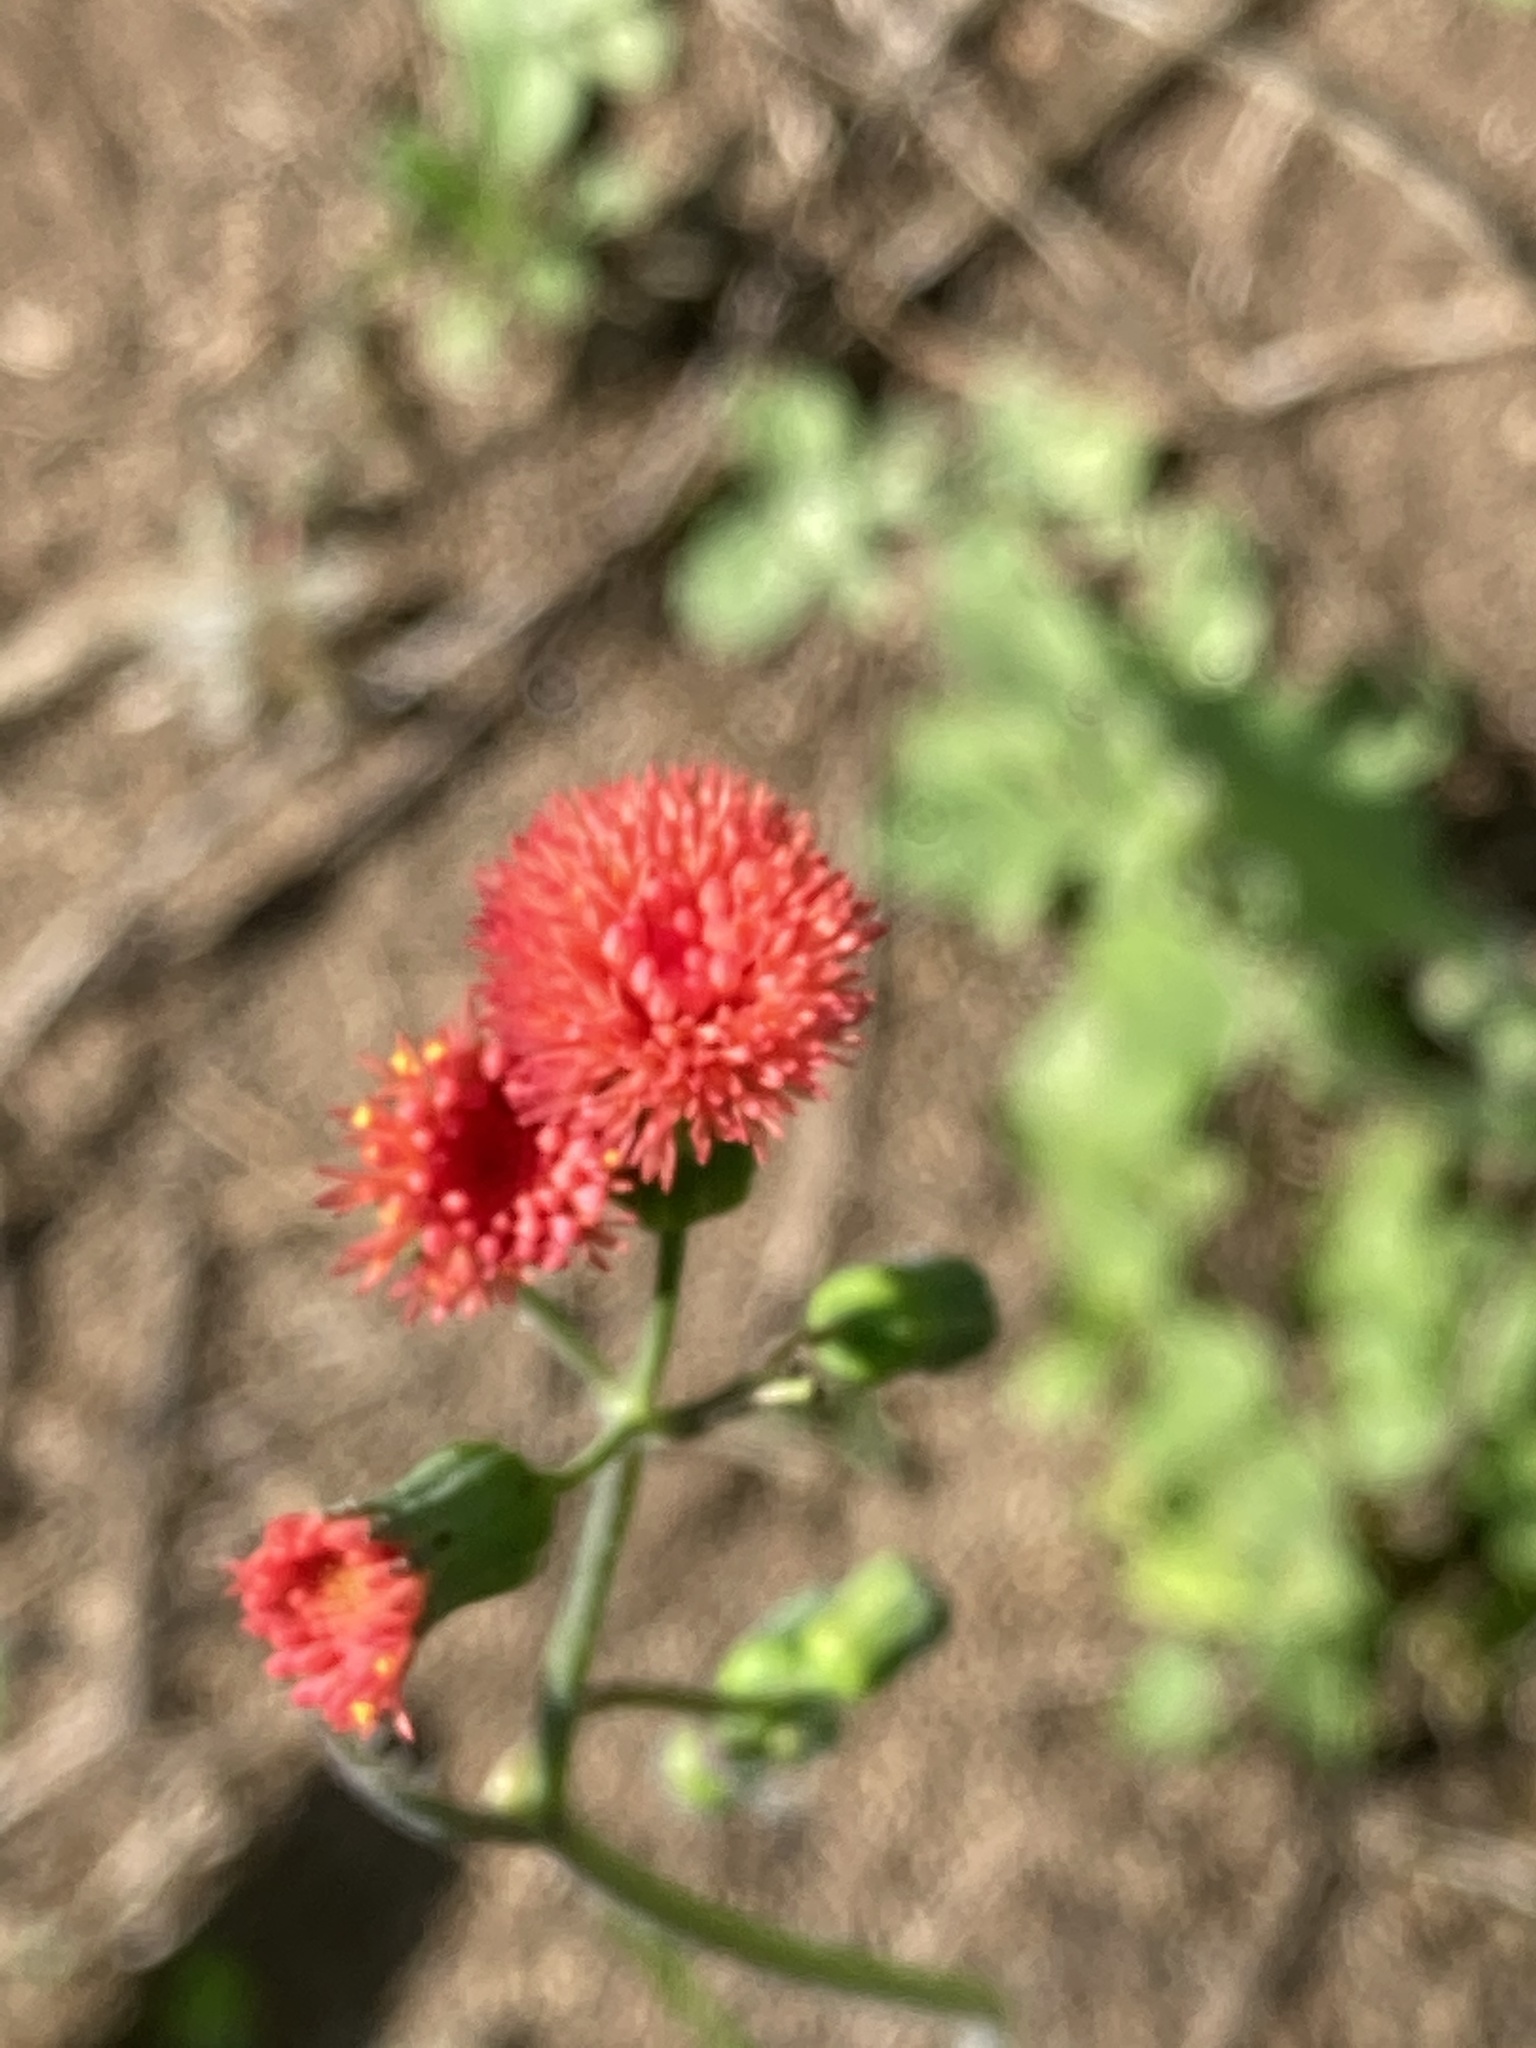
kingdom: Plantae
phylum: Tracheophyta
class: Magnoliopsida
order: Asterales
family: Asteraceae
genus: Emilia
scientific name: Emilia fosbergii
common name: Florida tasselflower
